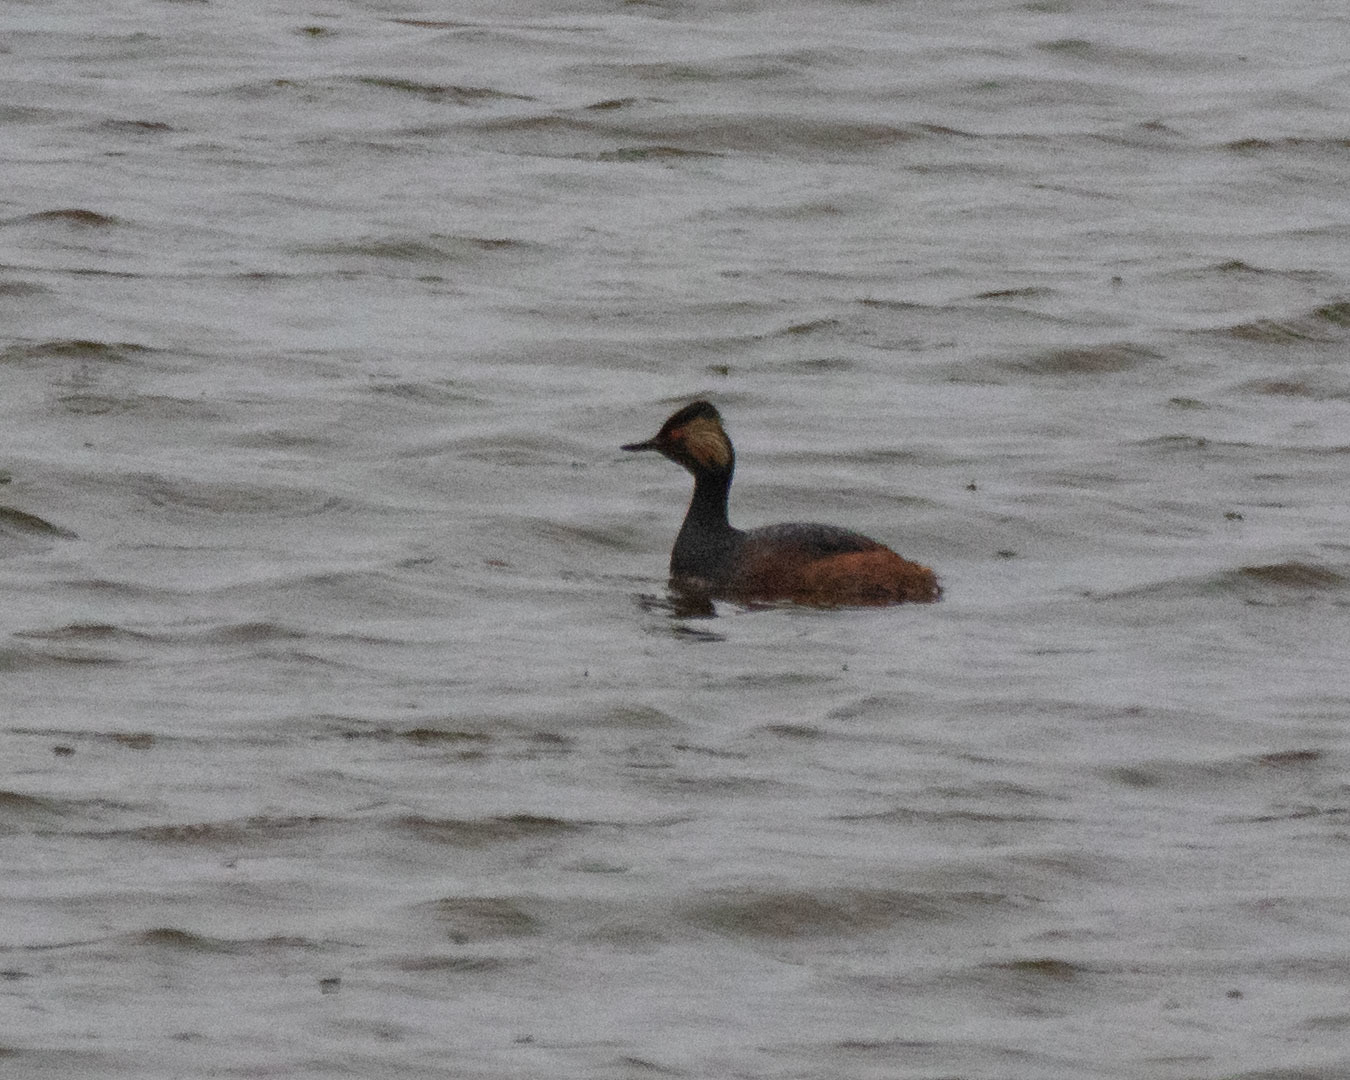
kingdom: Animalia
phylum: Chordata
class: Aves
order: Podicipediformes
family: Podicipedidae
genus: Podiceps
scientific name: Podiceps nigricollis
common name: Black-necked grebe
